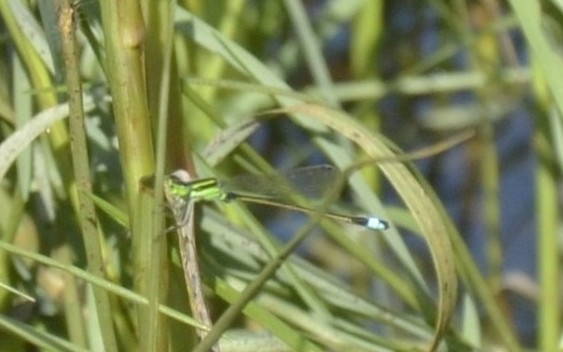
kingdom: Animalia
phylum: Arthropoda
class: Insecta
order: Odonata
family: Coenagrionidae
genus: Ischnura
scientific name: Ischnura senegalensis
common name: Tropical bluetail
